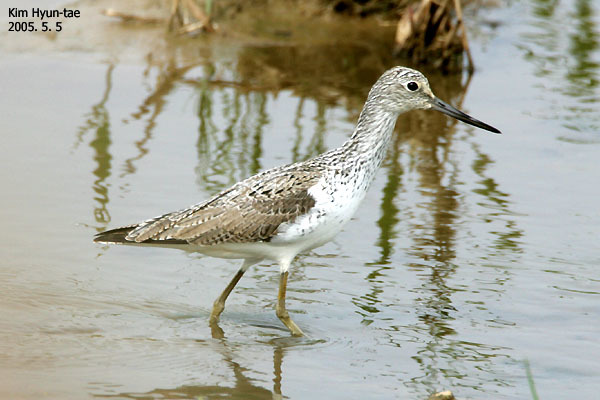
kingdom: Animalia
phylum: Chordata
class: Aves
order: Charadriiformes
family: Scolopacidae
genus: Tringa
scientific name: Tringa nebularia
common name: Common greenshank
